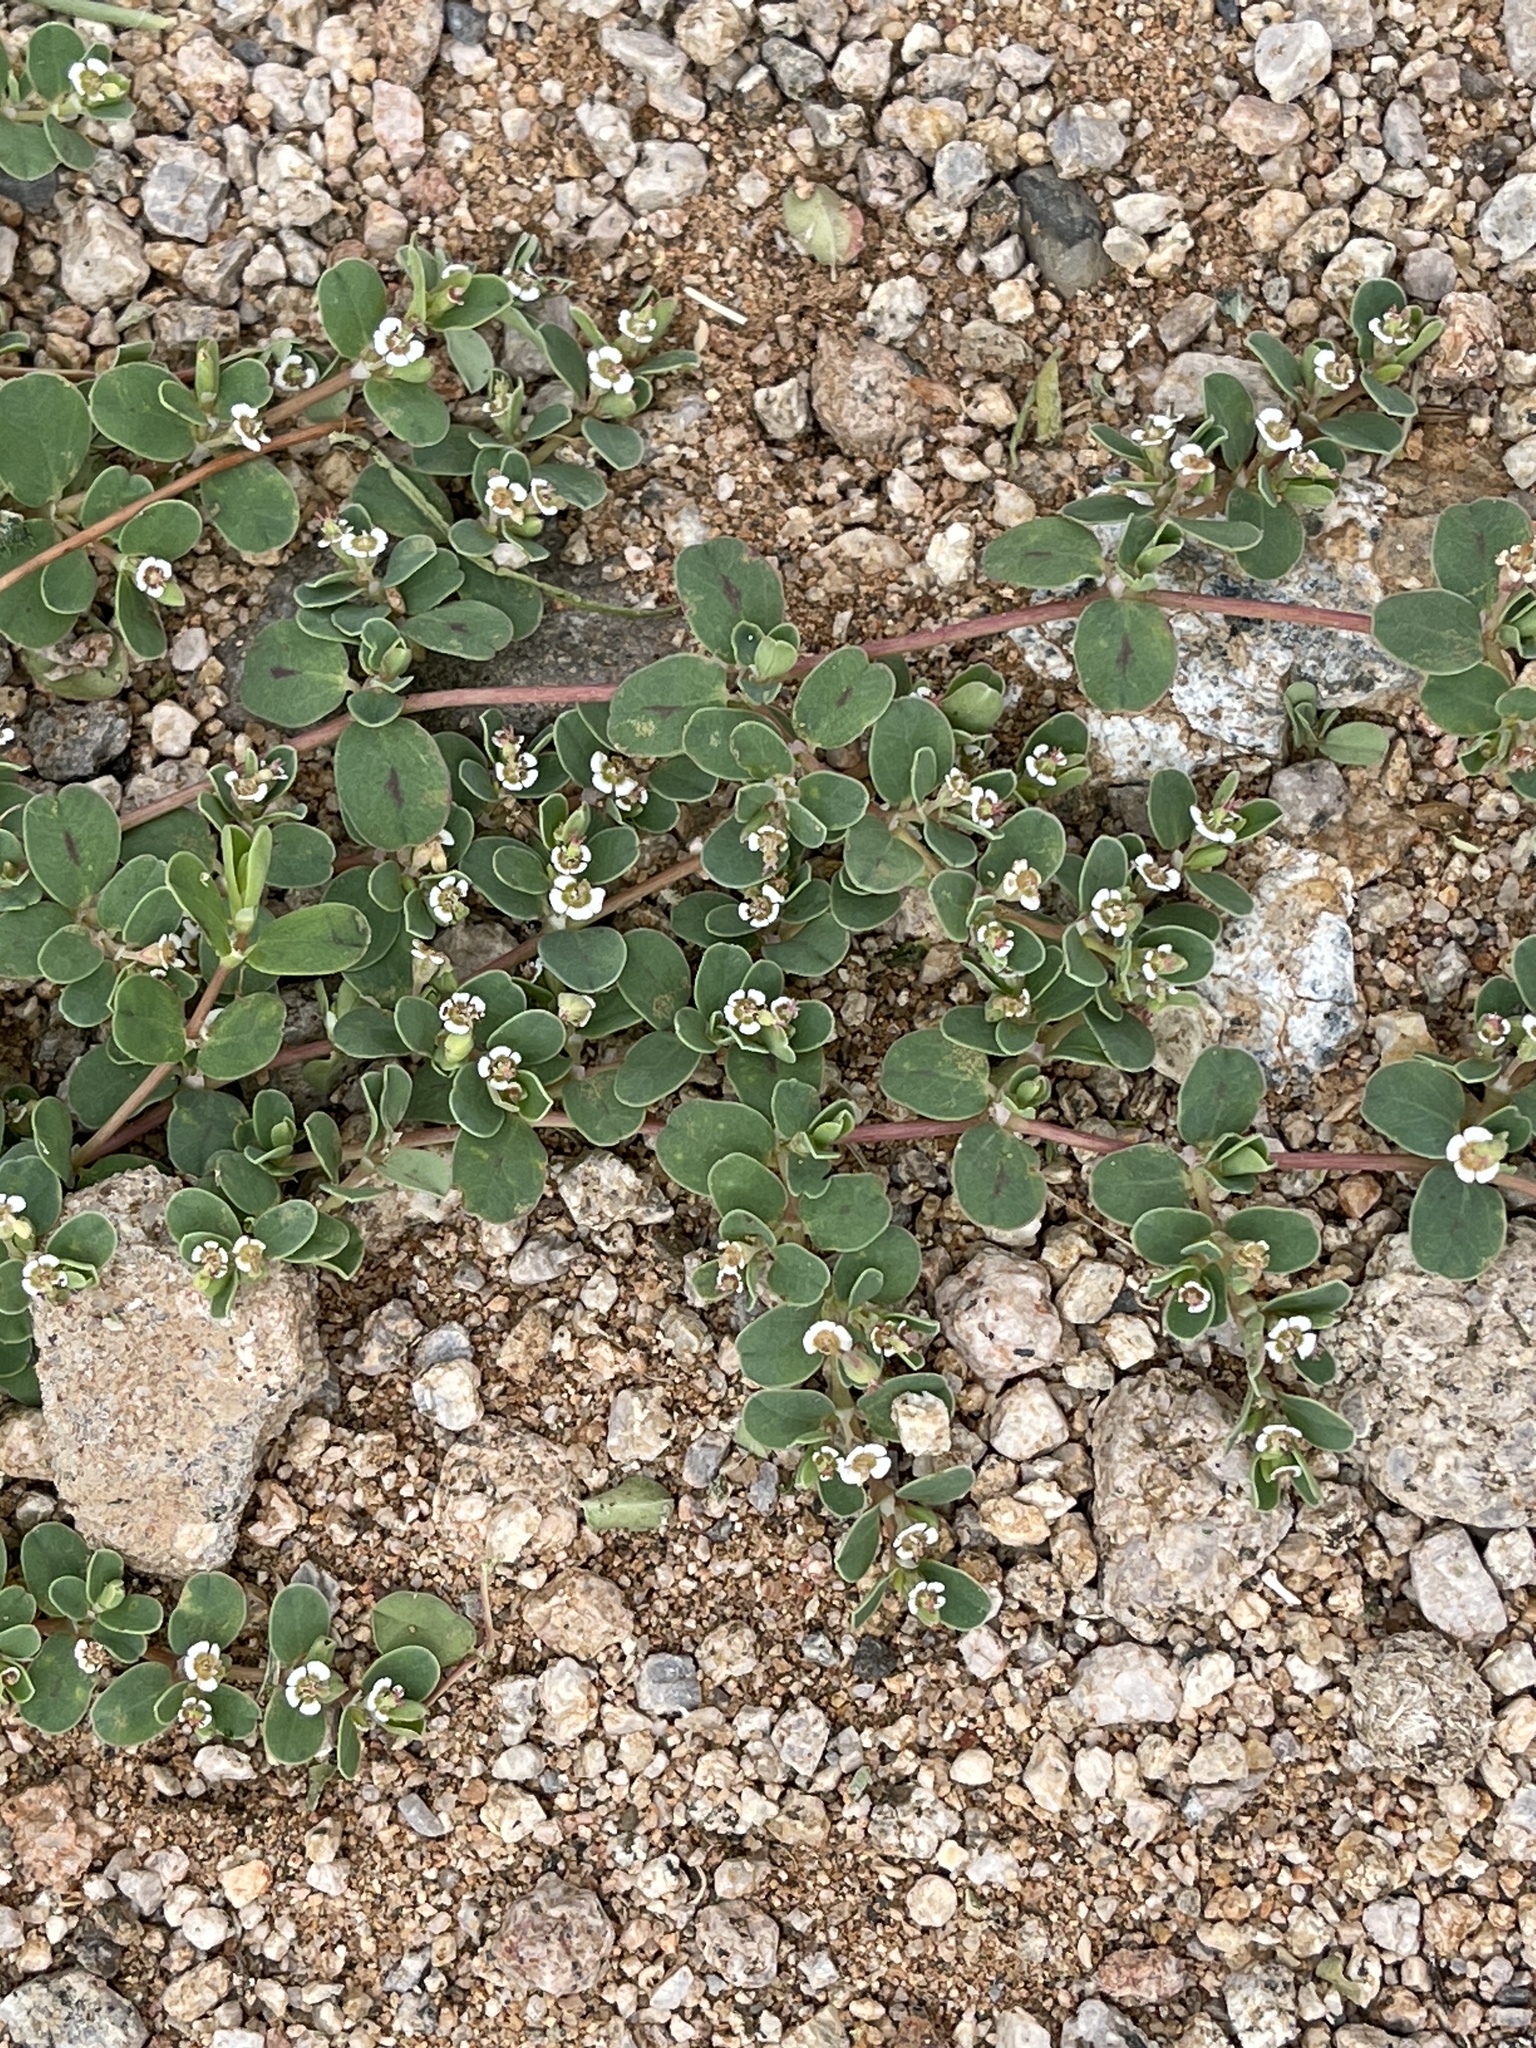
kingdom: Plantae
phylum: Tracheophyta
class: Magnoliopsida
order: Malpighiales
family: Euphorbiaceae
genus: Euphorbia
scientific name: Euphorbia albomarginata
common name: Whitemargin sandmat
